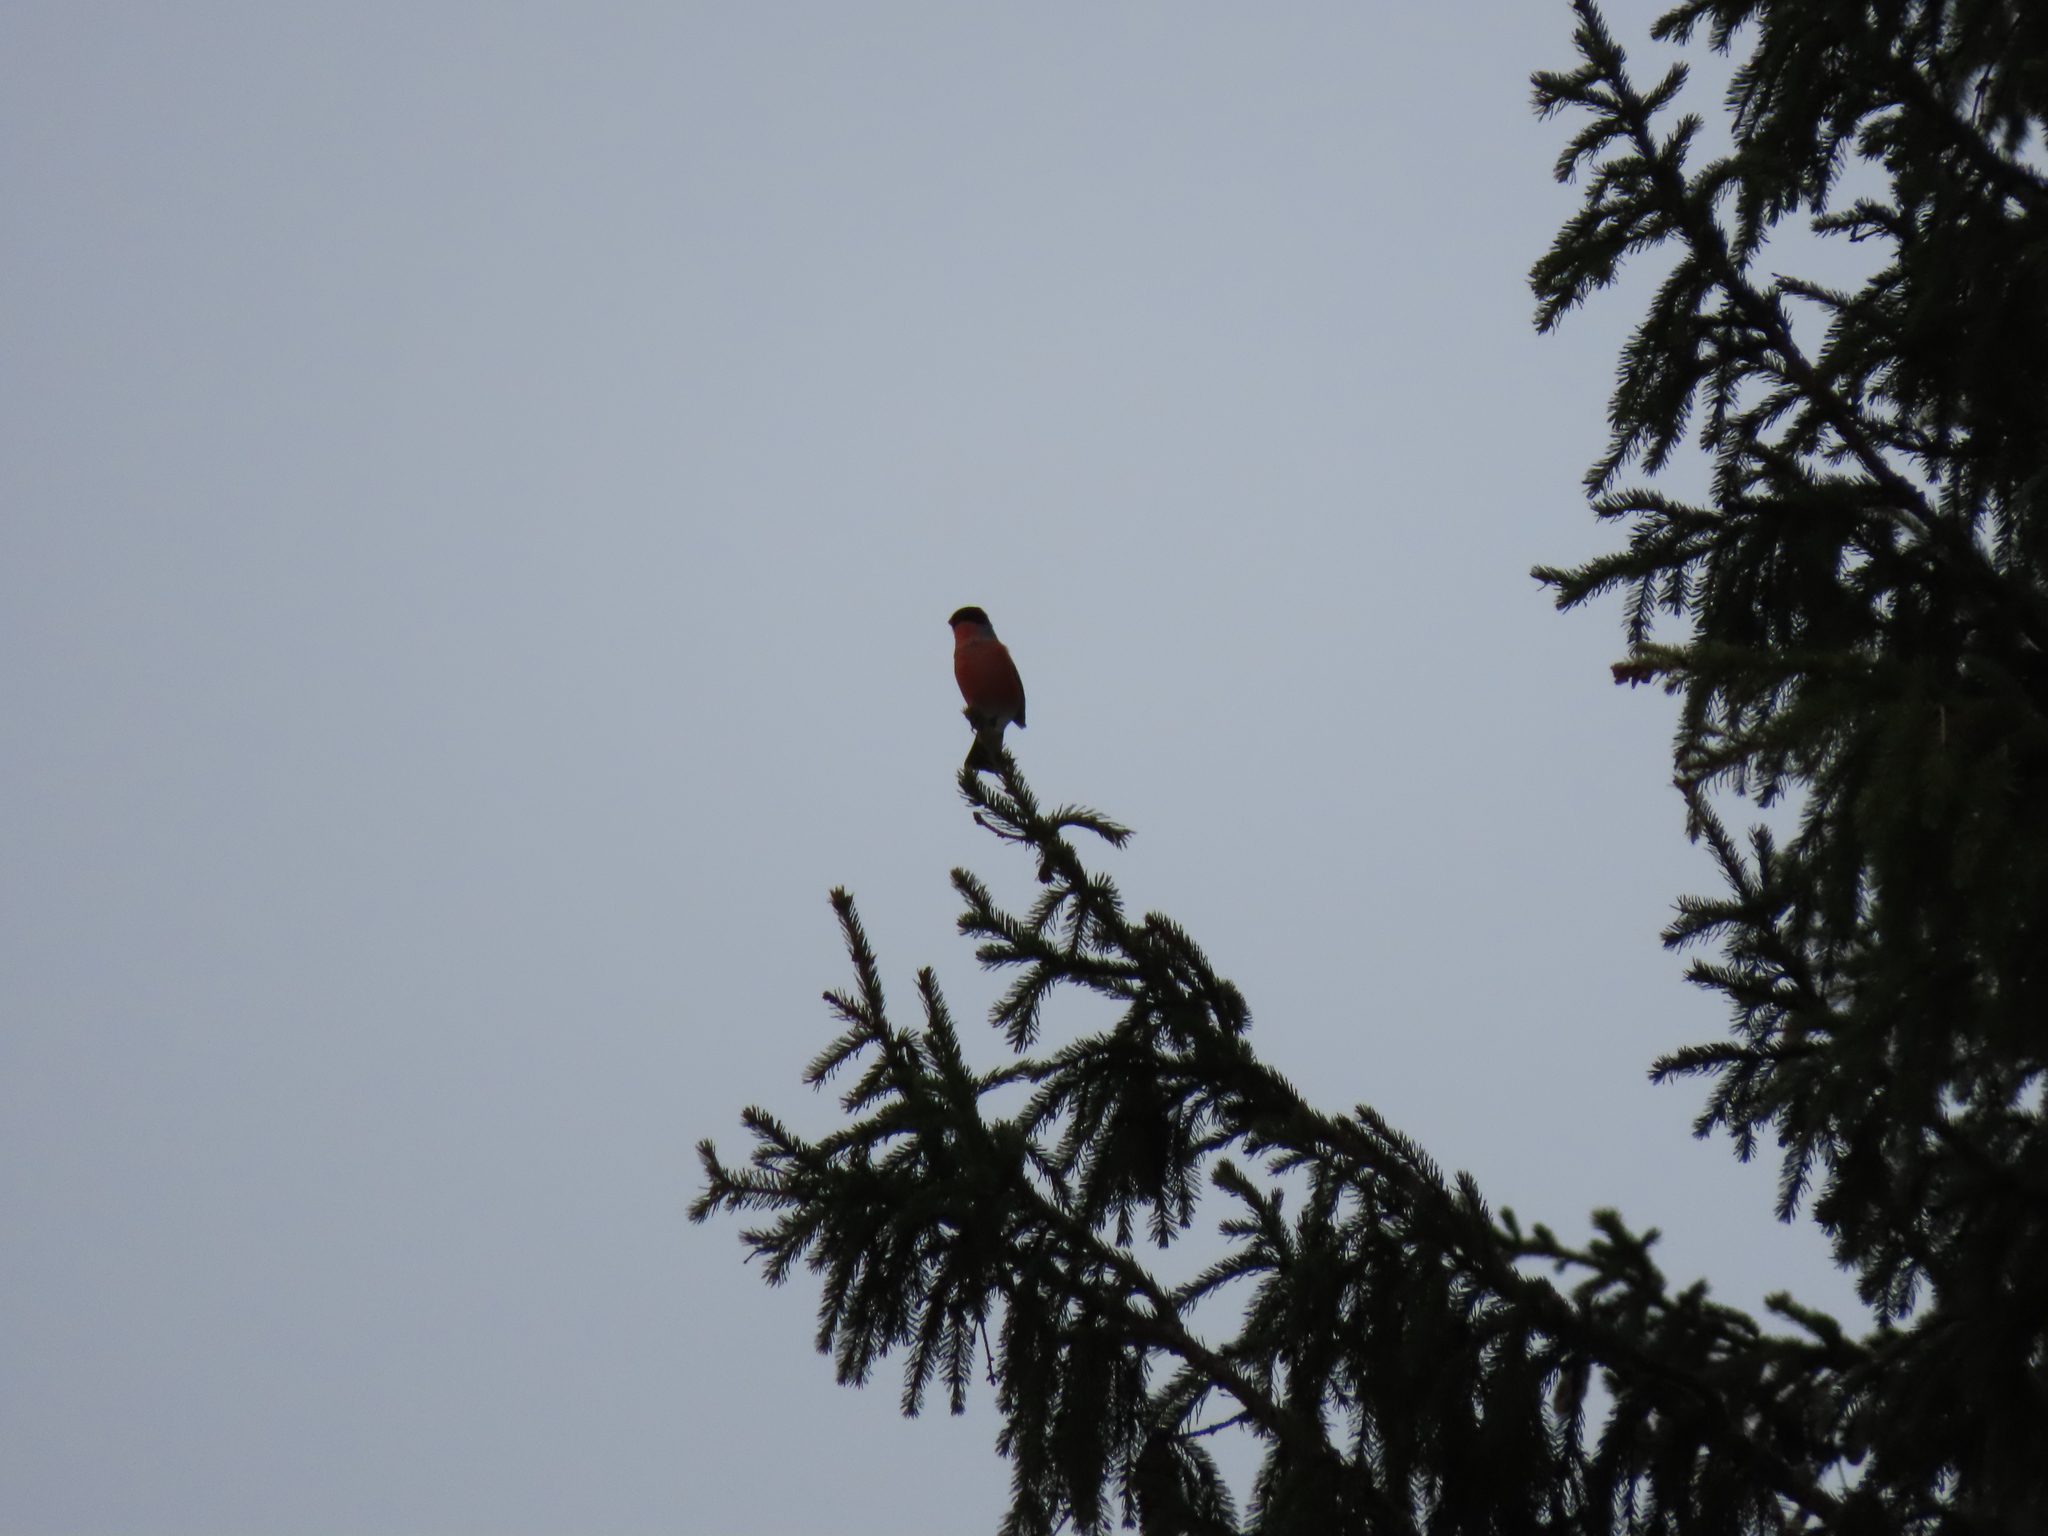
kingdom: Animalia
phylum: Chordata
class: Aves
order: Passeriformes
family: Fringillidae
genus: Pyrrhula
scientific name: Pyrrhula pyrrhula
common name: Eurasian bullfinch
